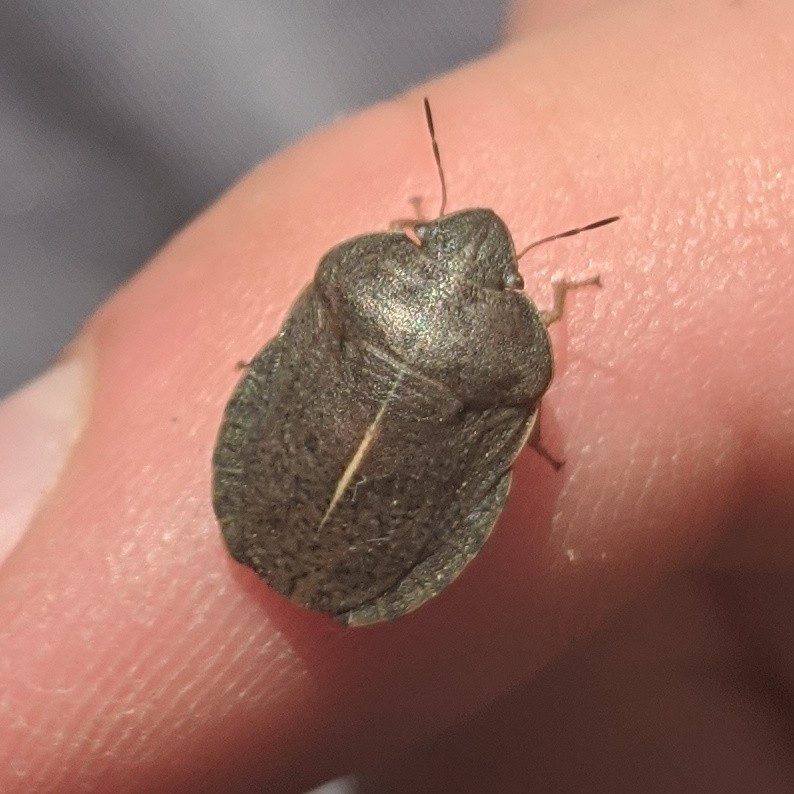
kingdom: Animalia
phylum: Arthropoda
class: Insecta
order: Hemiptera
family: Scutelleridae
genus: Eurygaster
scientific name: Eurygaster austriaca
